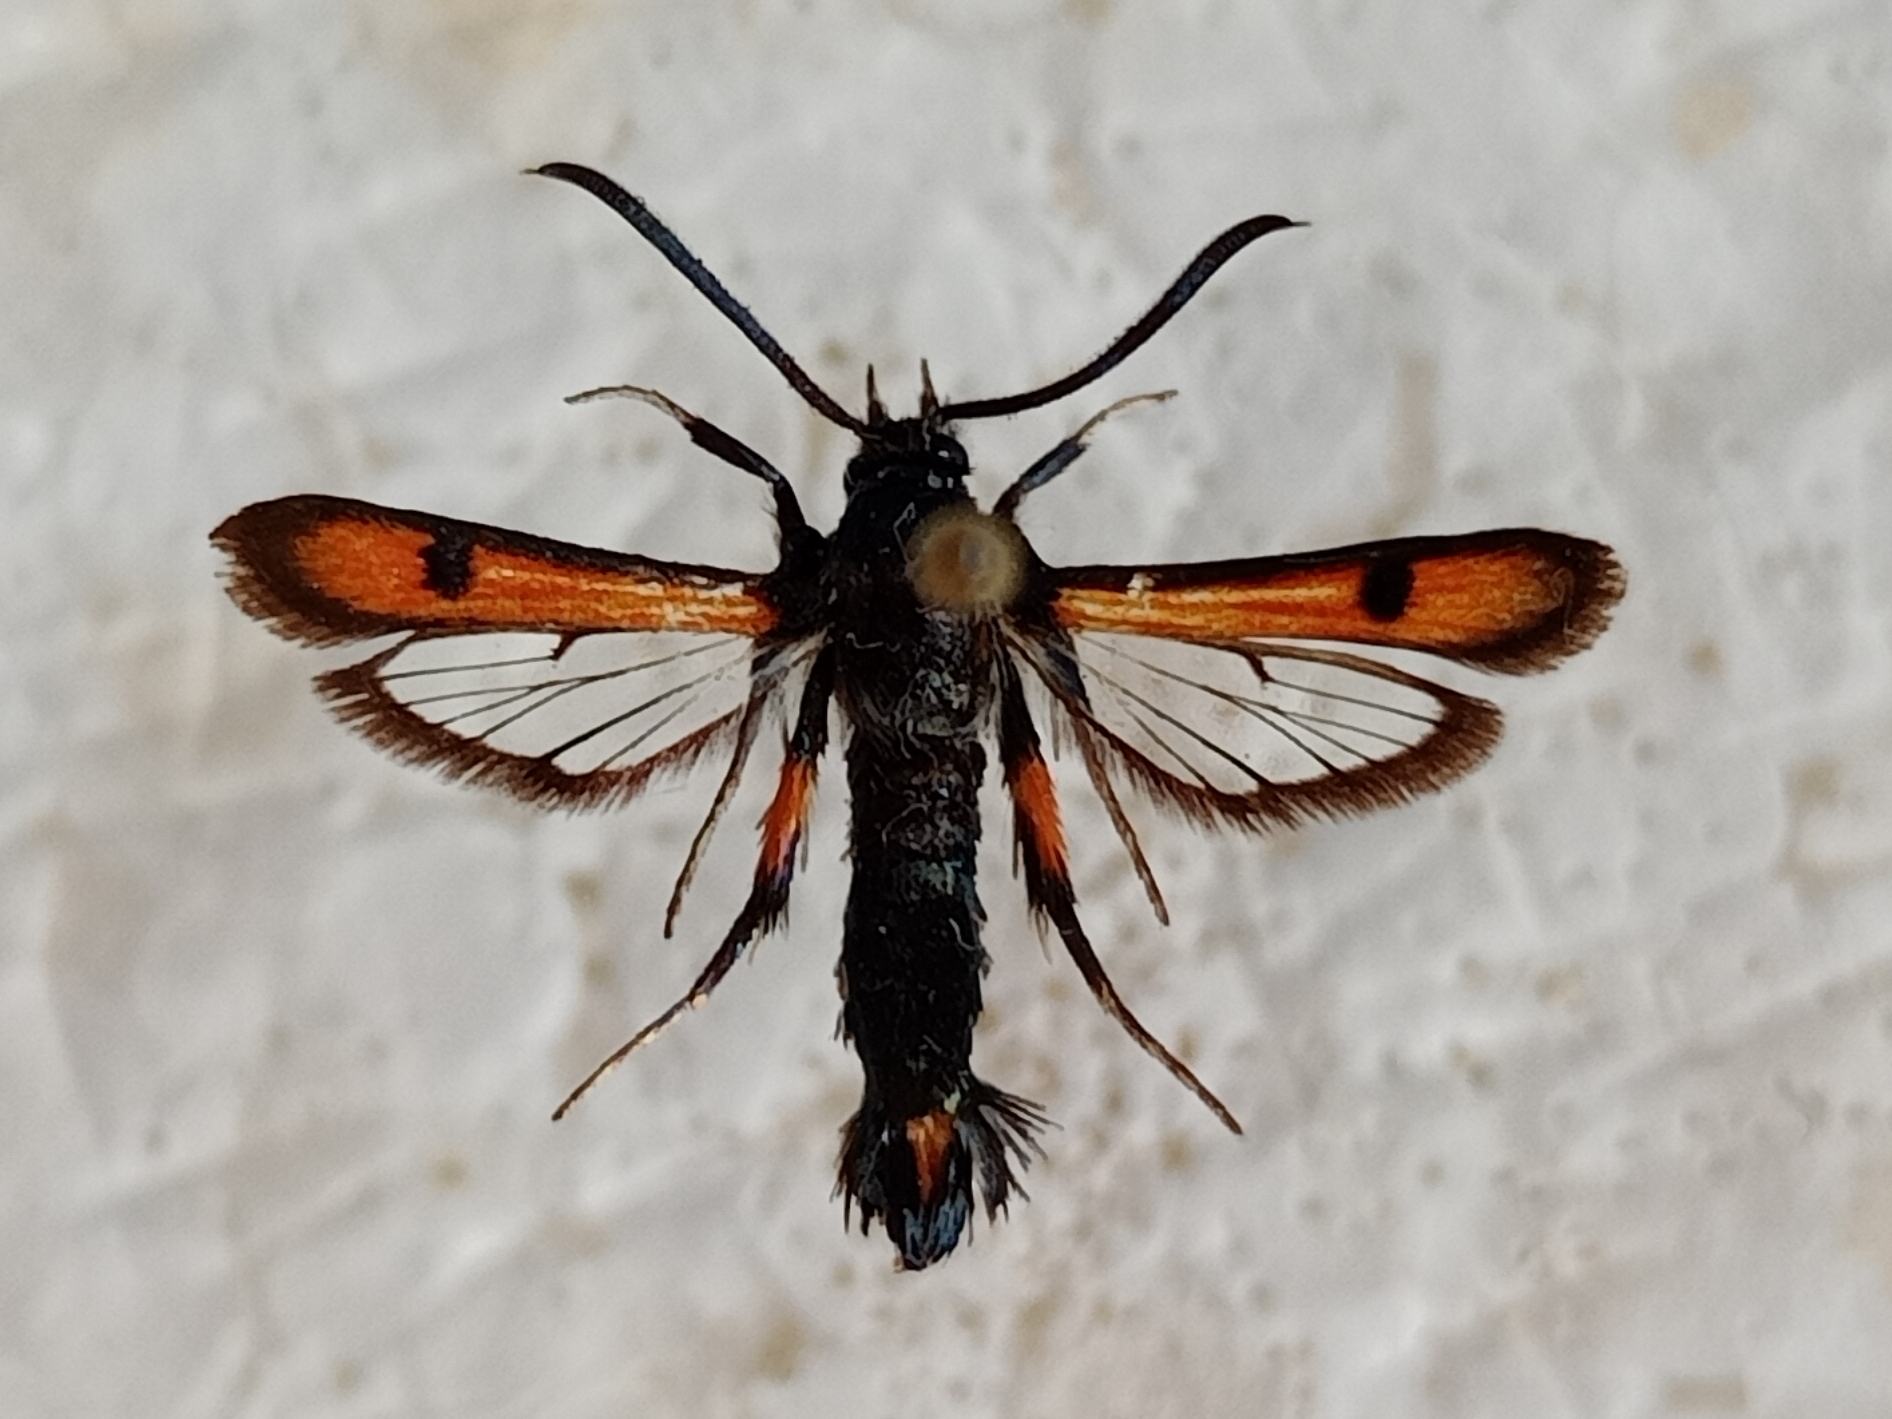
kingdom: Animalia
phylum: Arthropoda
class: Insecta
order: Lepidoptera
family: Sesiidae
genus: Chamaesphecia
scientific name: Chamaesphecia chalciformis
